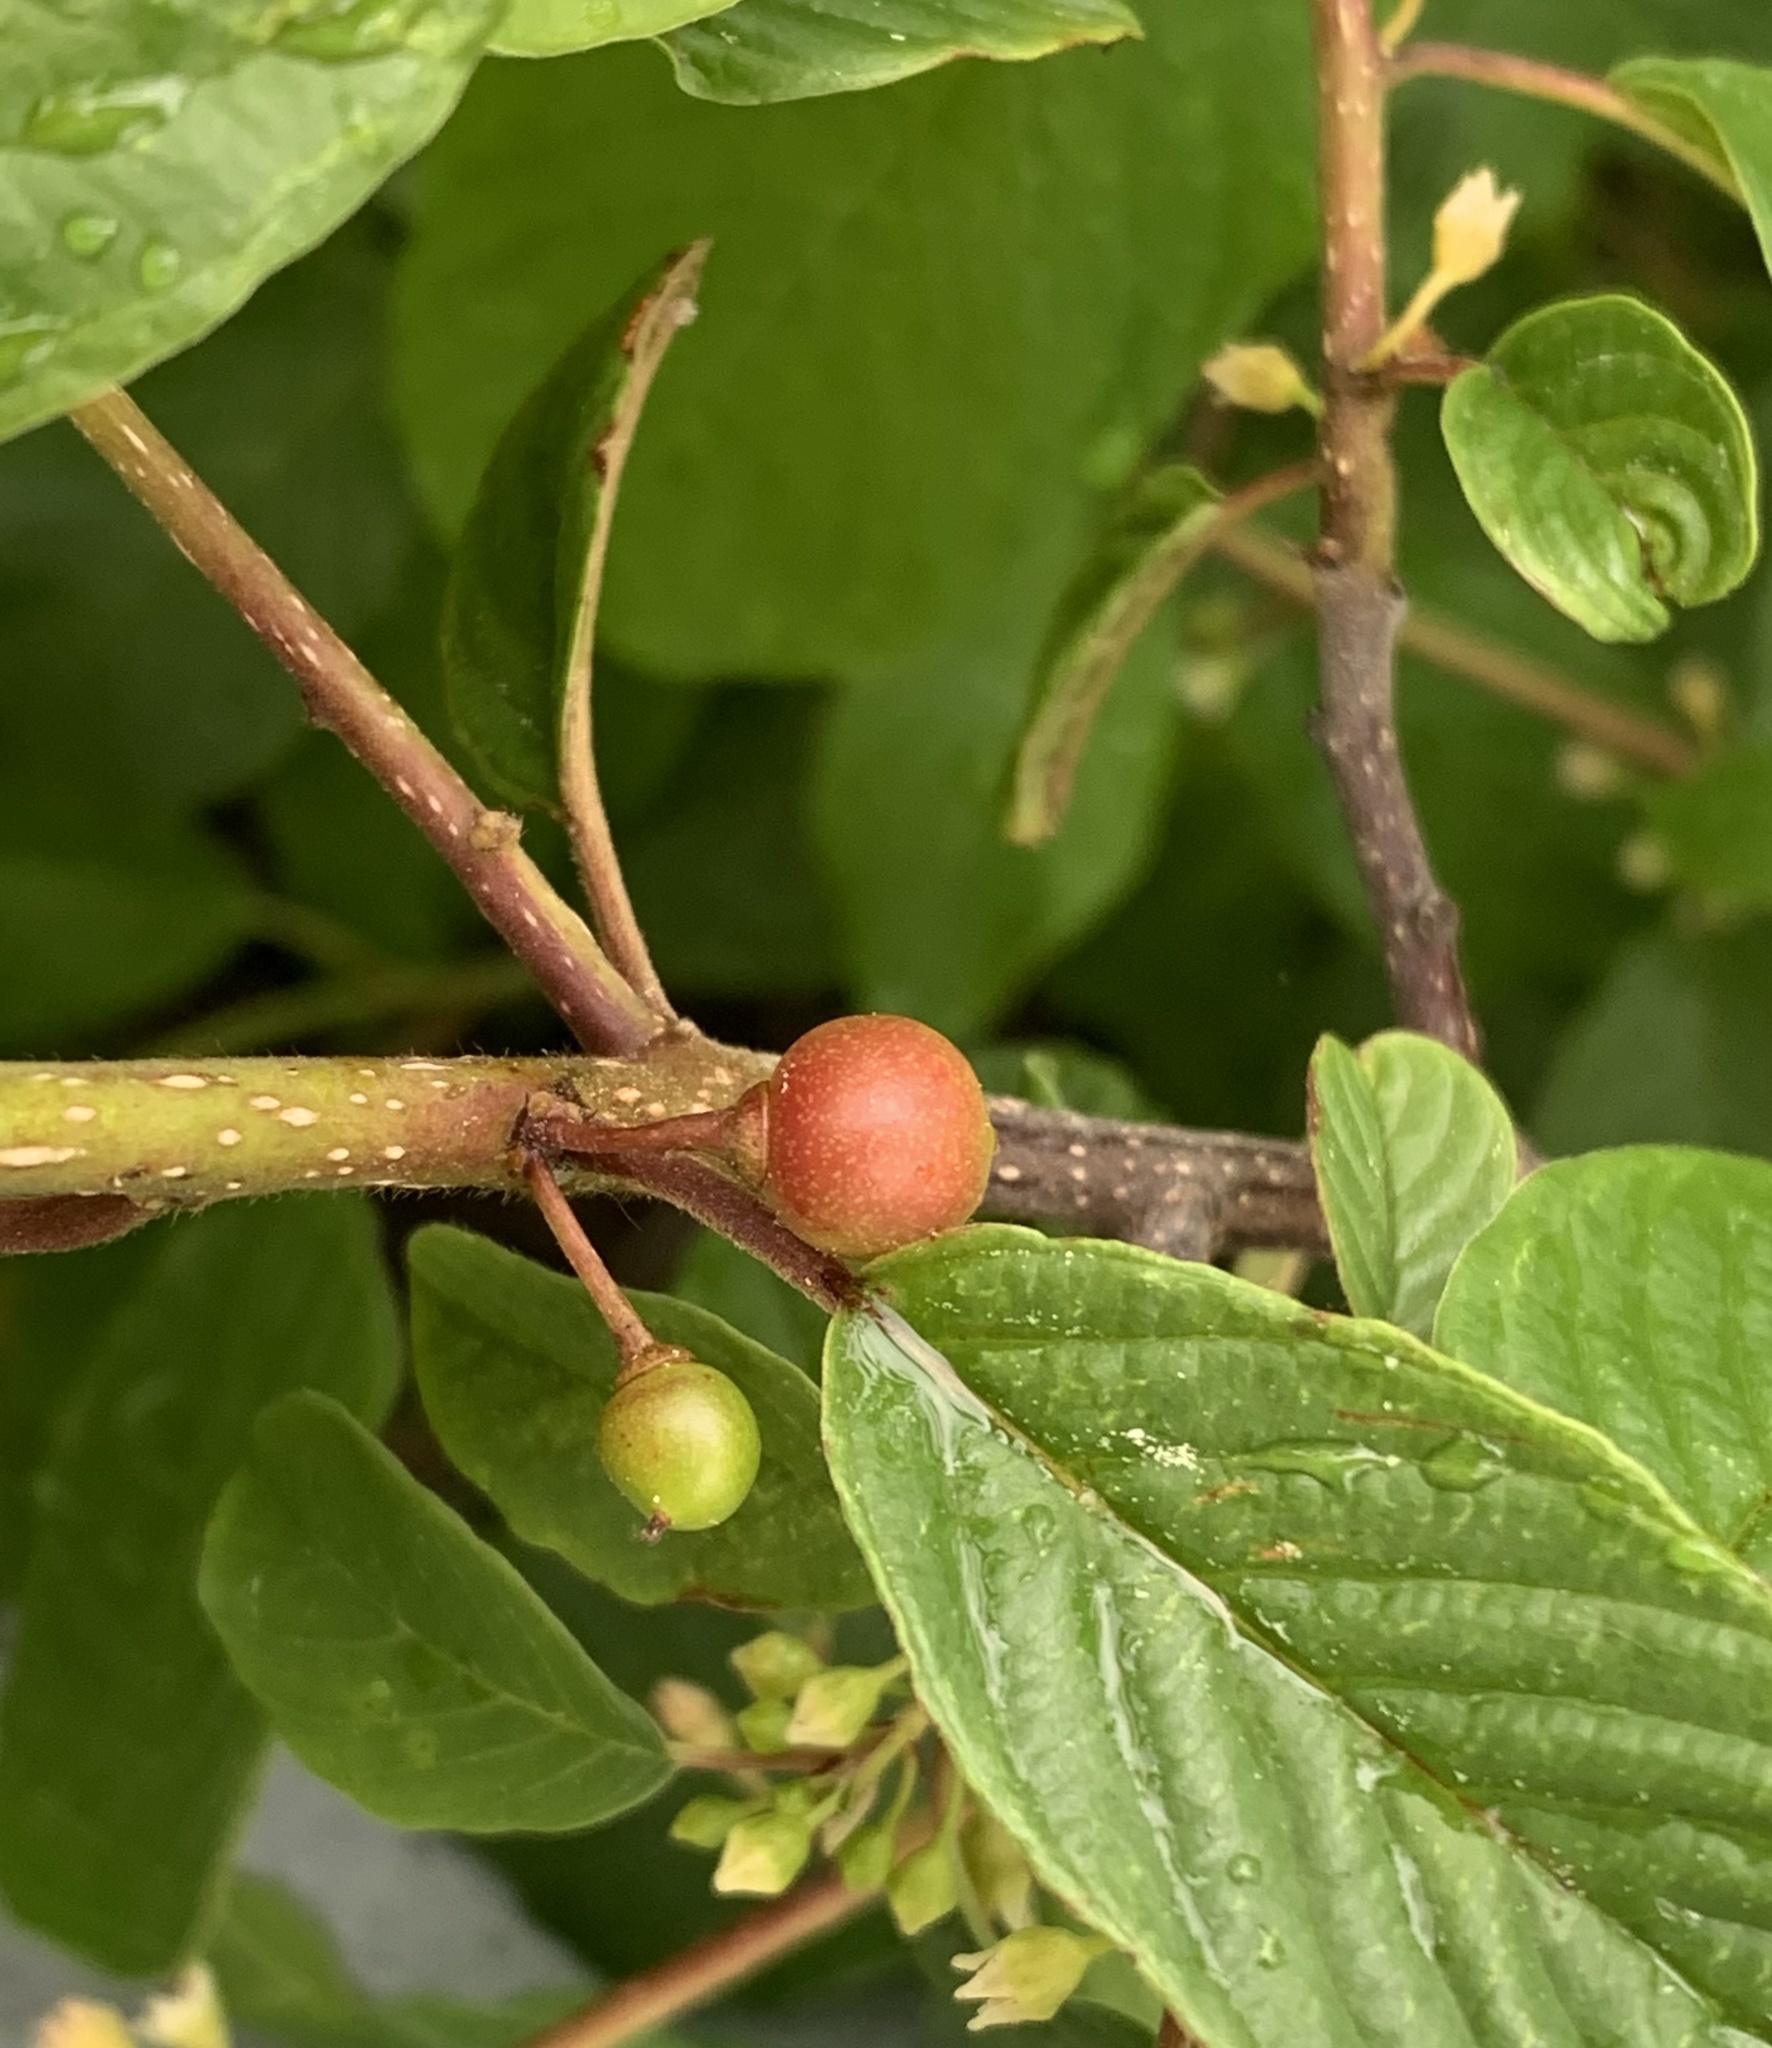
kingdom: Plantae
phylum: Tracheophyta
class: Magnoliopsida
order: Rosales
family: Rhamnaceae
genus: Frangula
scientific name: Frangula alnus
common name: Alder buckthorn
